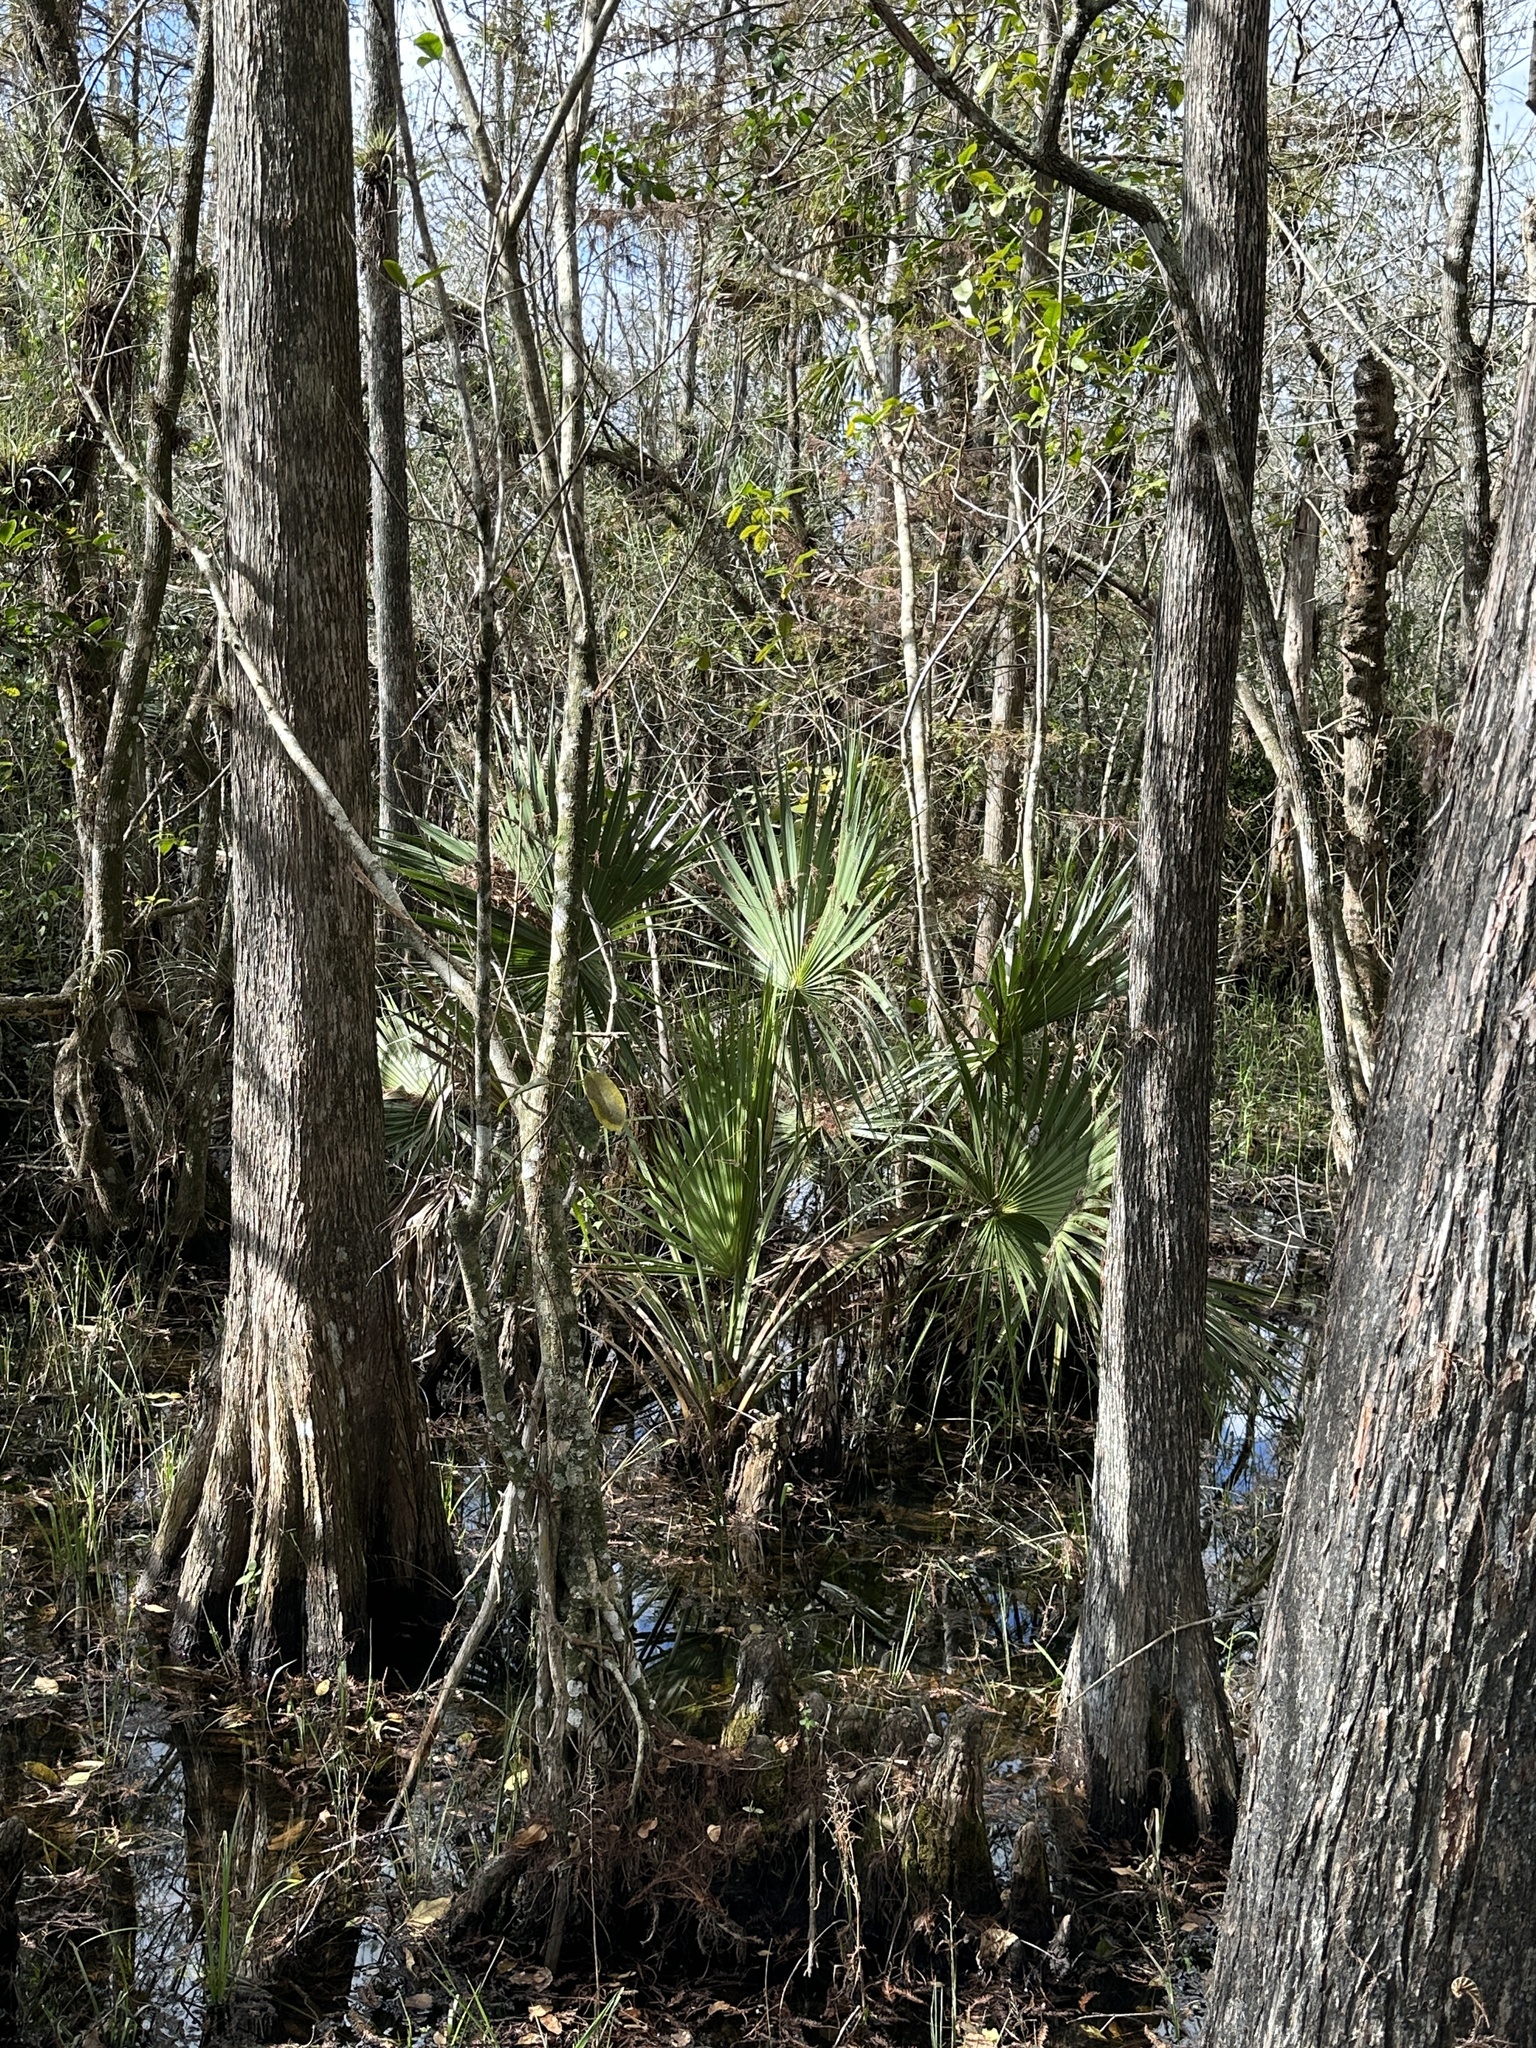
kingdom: Plantae
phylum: Tracheophyta
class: Liliopsida
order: Arecales
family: Arecaceae
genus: Sabal
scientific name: Sabal palmetto
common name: Blue palmetto
